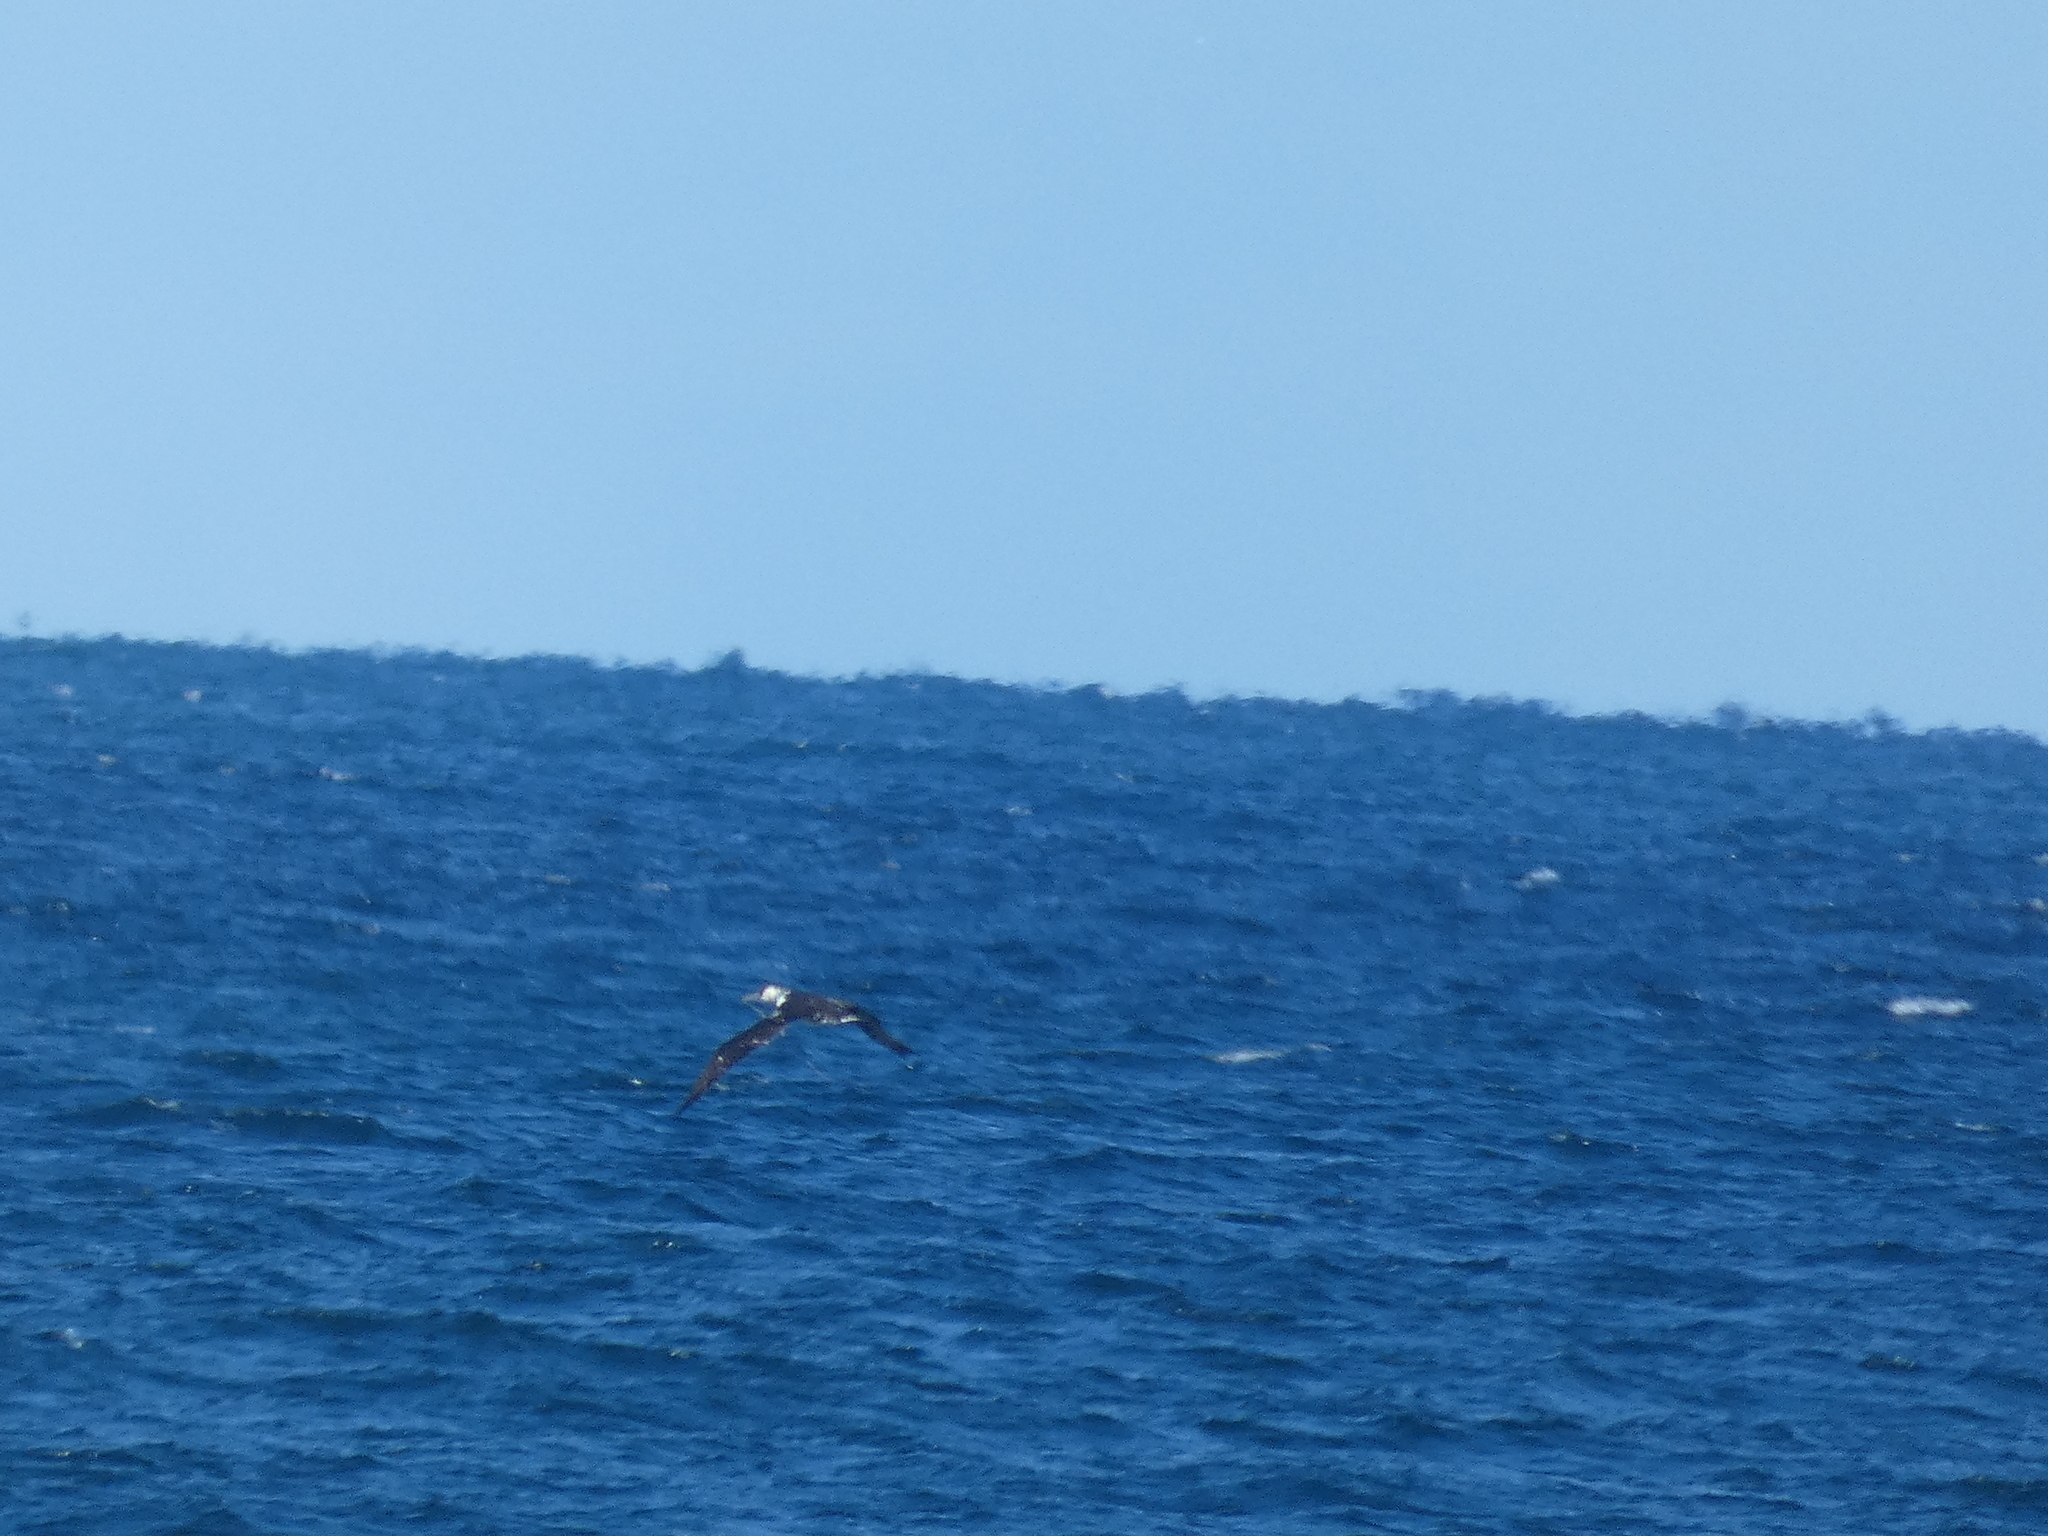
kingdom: Animalia
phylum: Chordata
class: Aves
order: Suliformes
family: Sulidae
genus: Morus
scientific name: Morus bassanus
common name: Northern gannet
